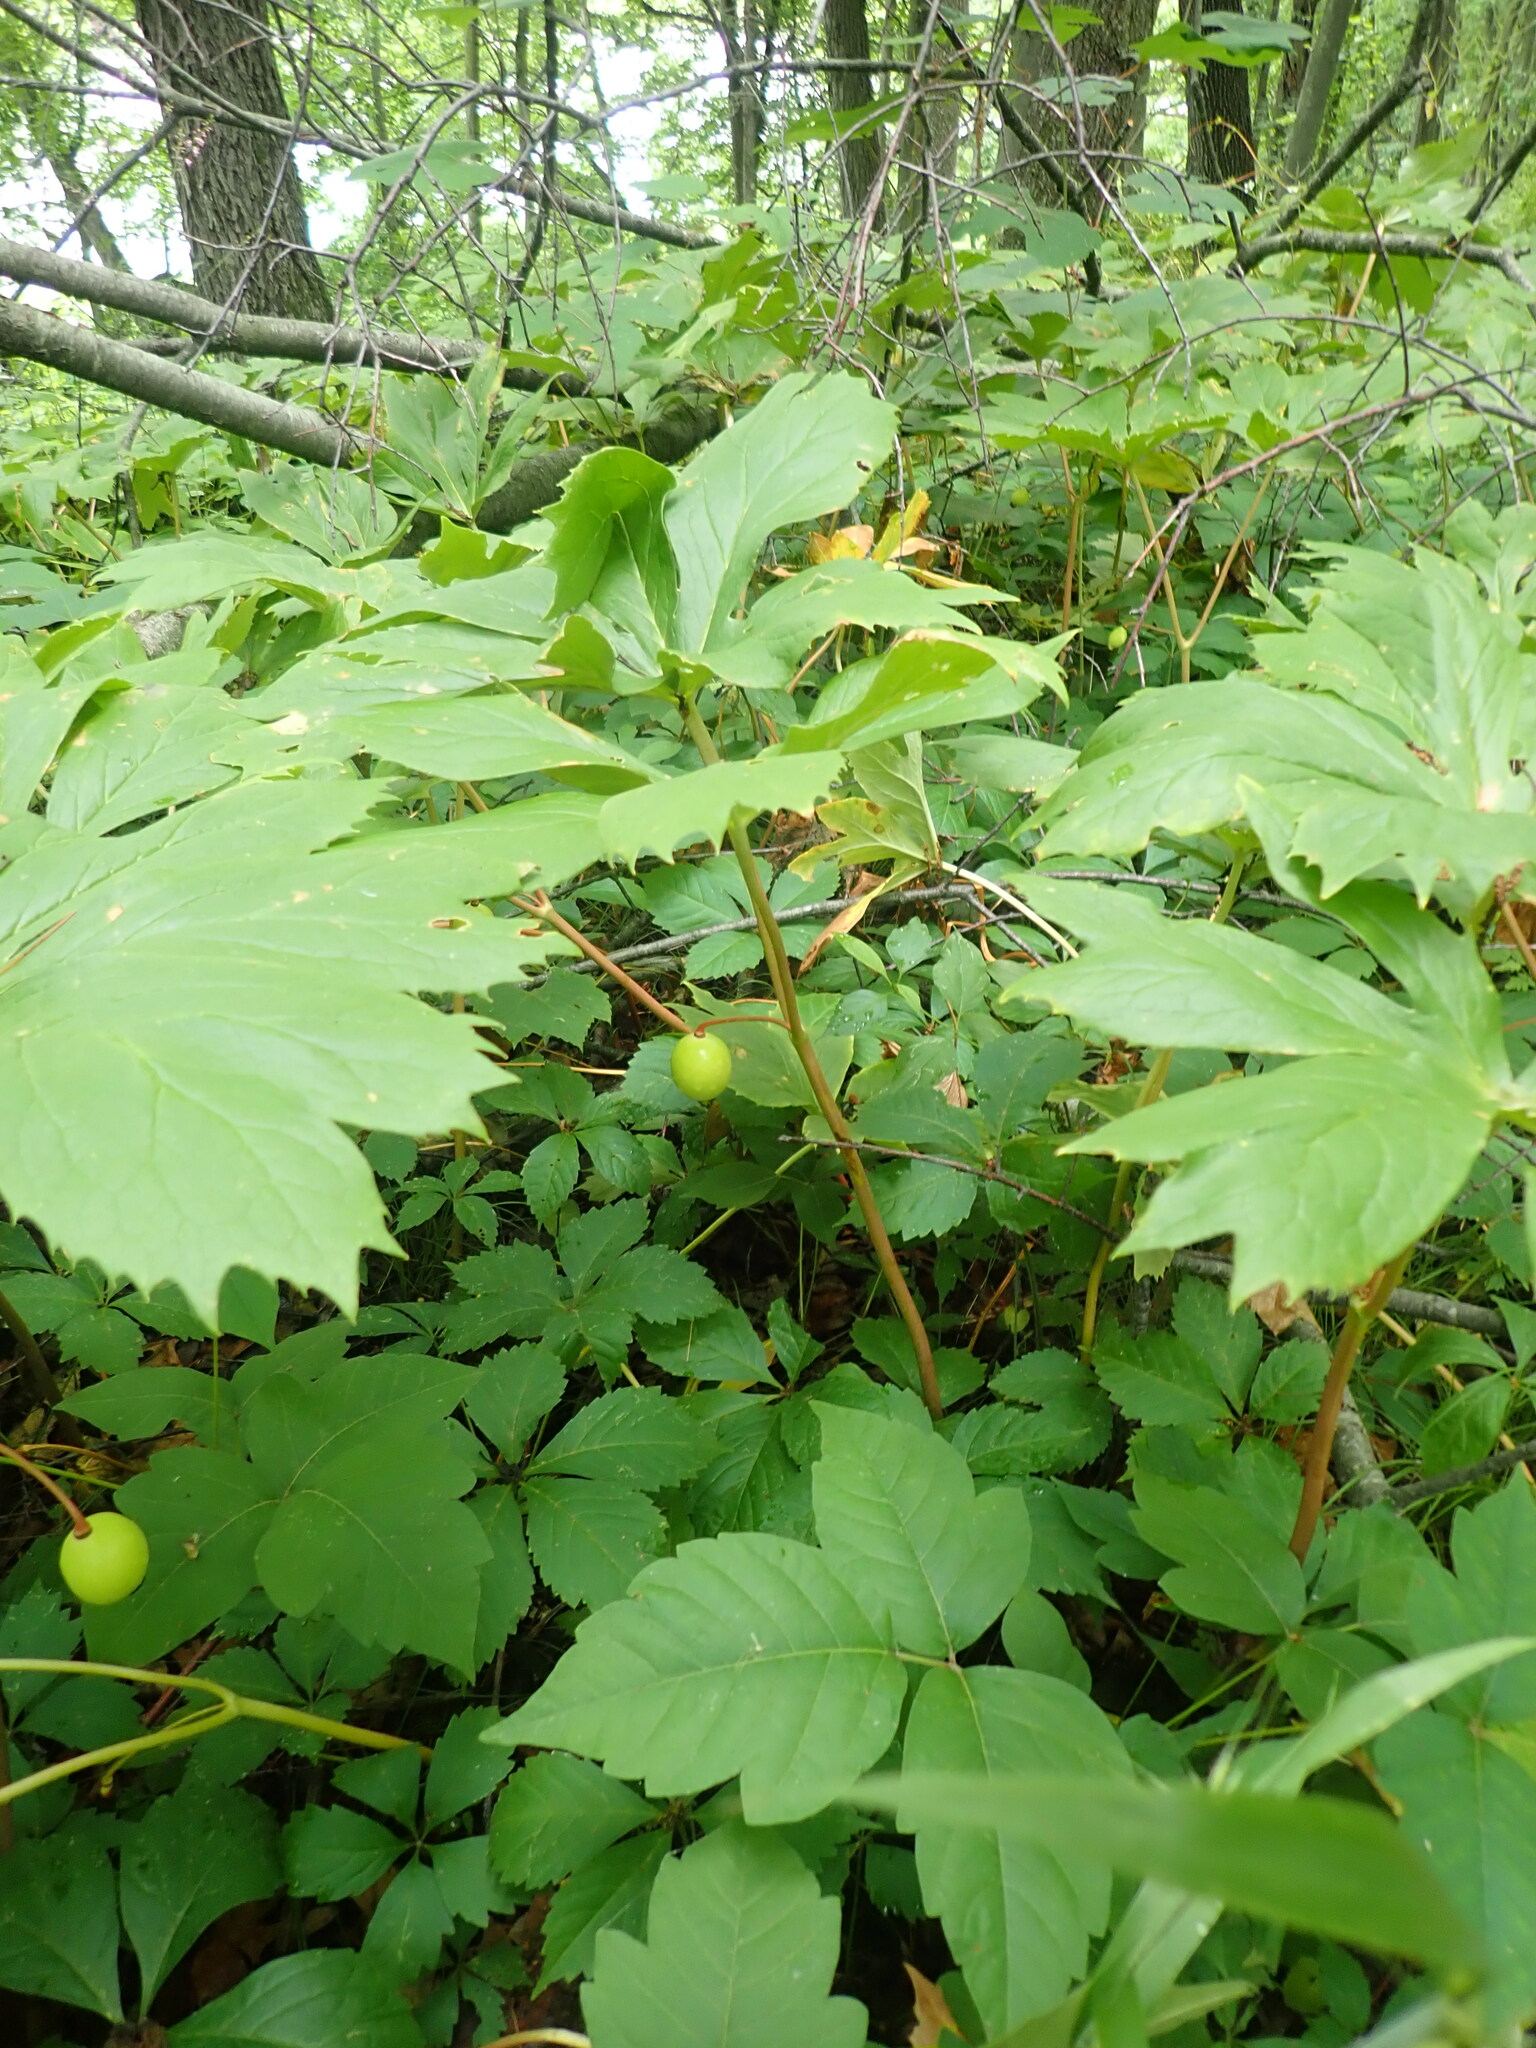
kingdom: Plantae
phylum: Tracheophyta
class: Magnoliopsida
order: Ranunculales
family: Berberidaceae
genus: Podophyllum
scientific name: Podophyllum peltatum
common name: Wild mandrake
